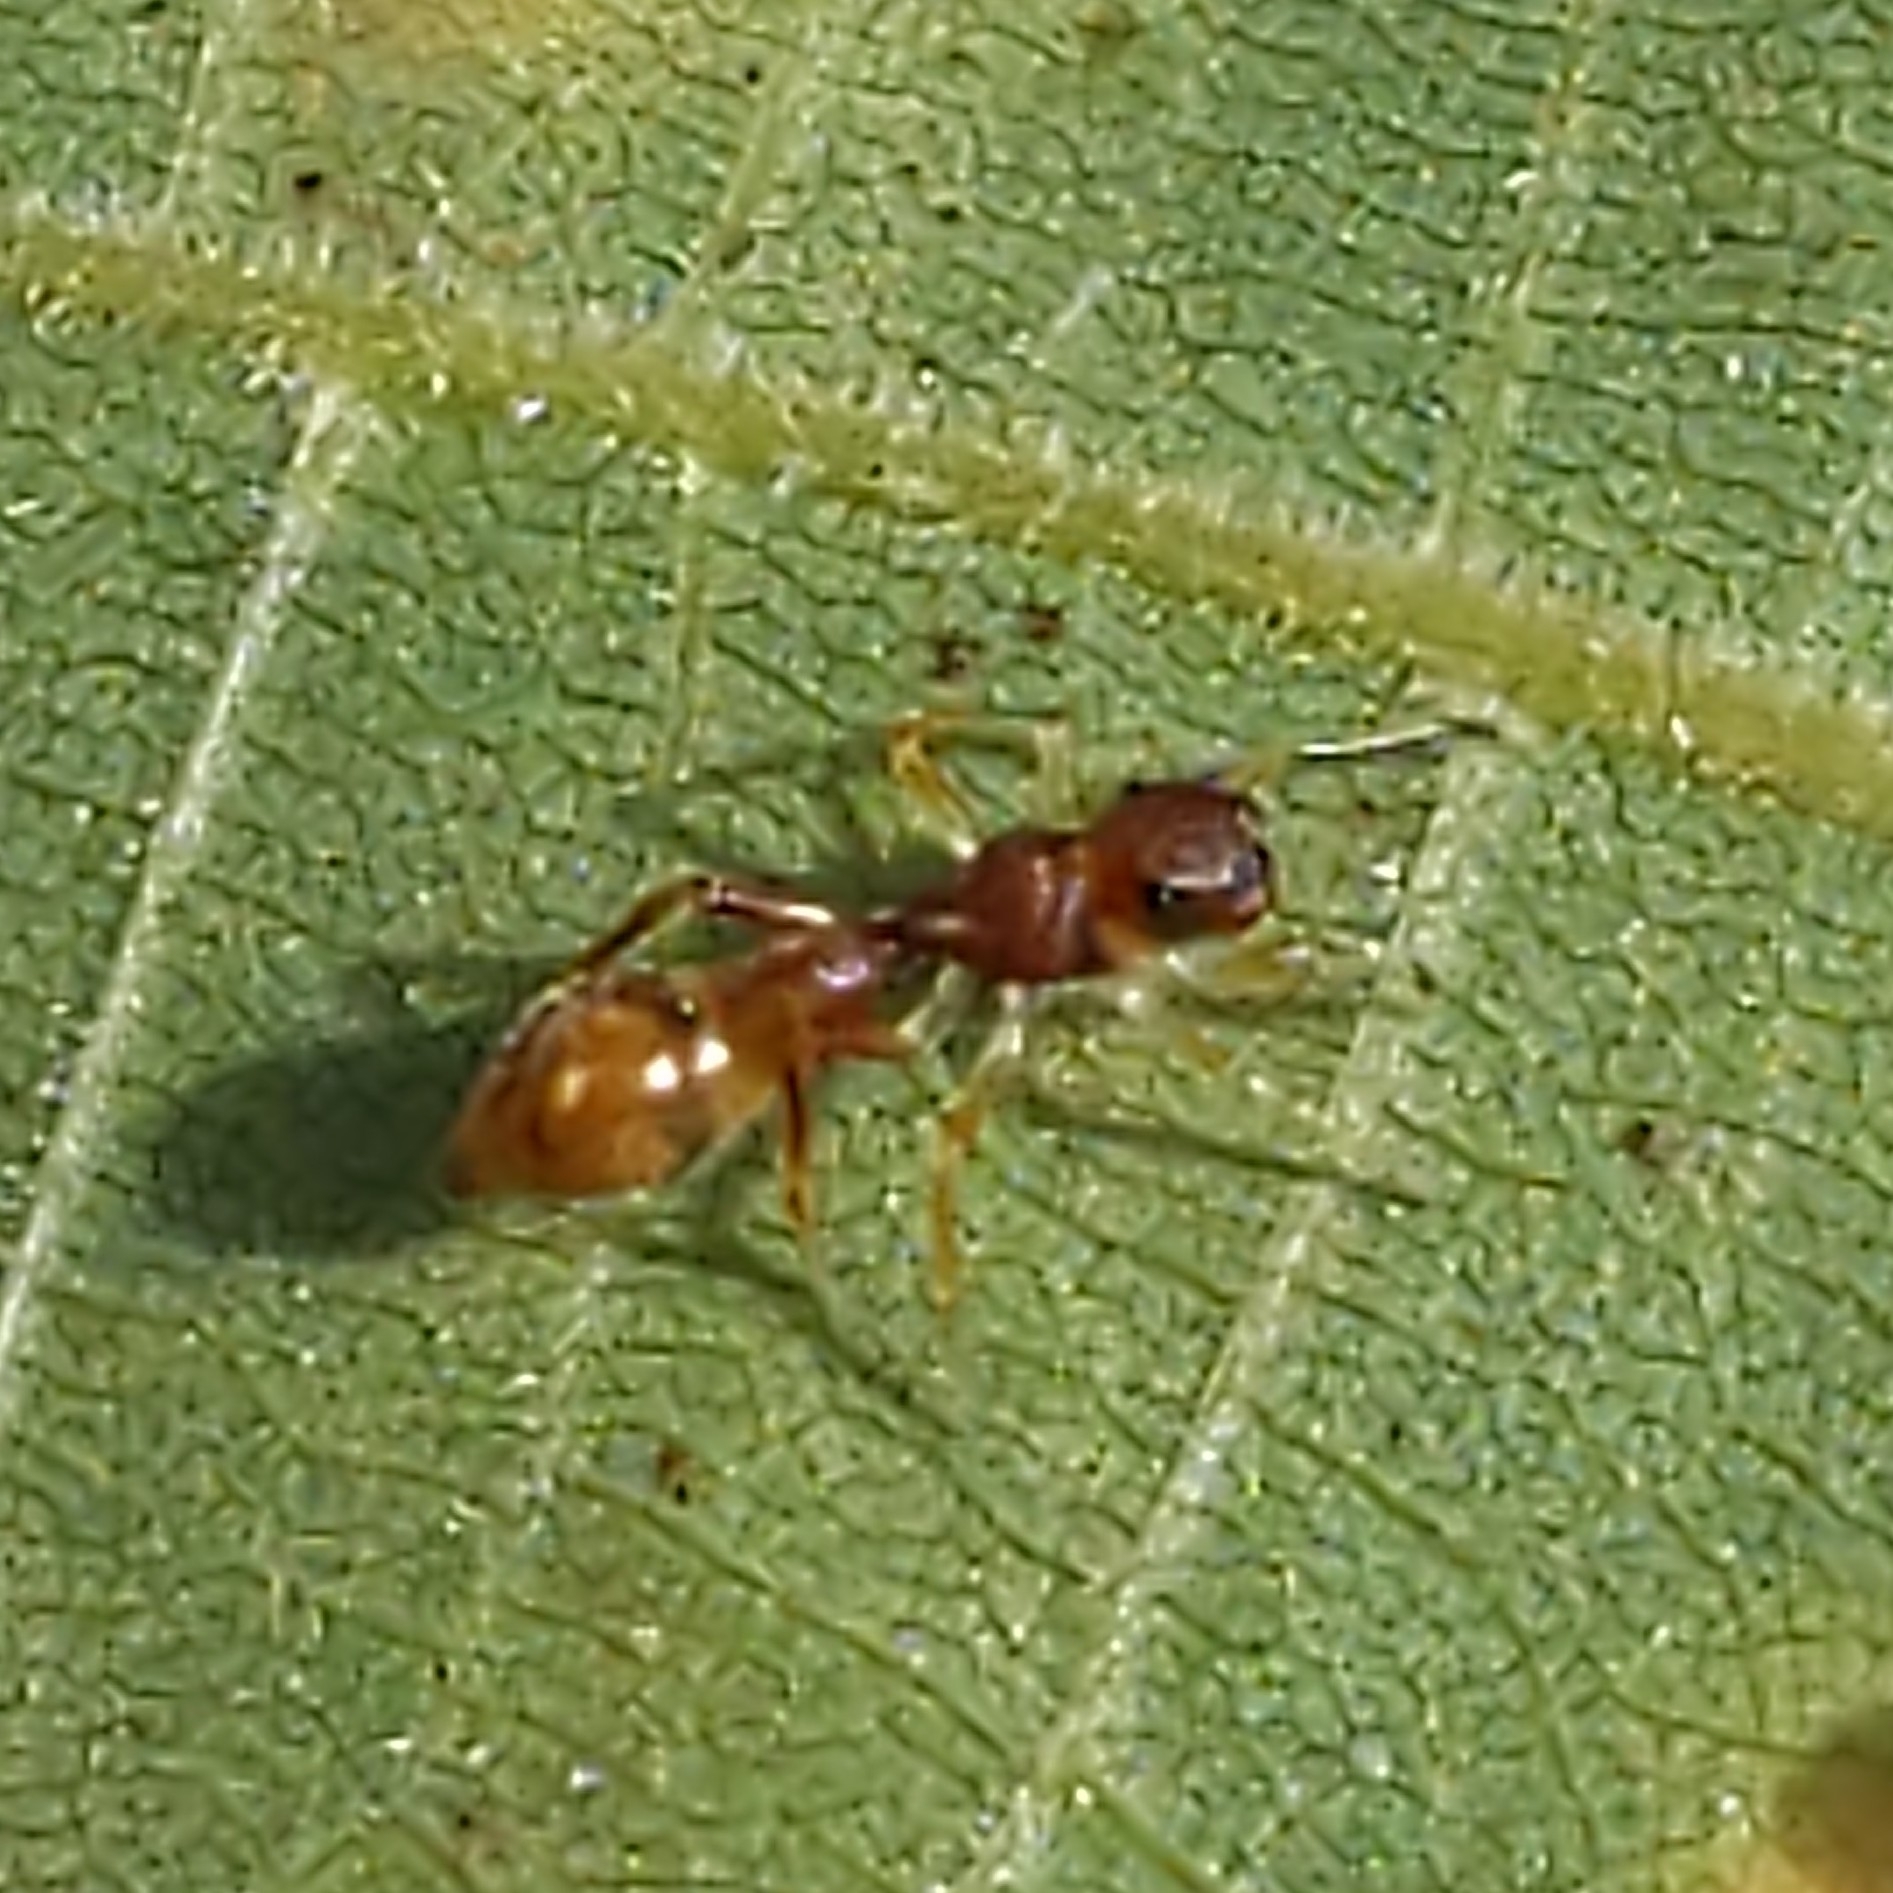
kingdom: Animalia
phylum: Arthropoda
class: Arachnida
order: Araneae
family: Salticidae
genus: Synemosyna
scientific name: Synemosyna formica
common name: Slender ant-mimic jumping spider
